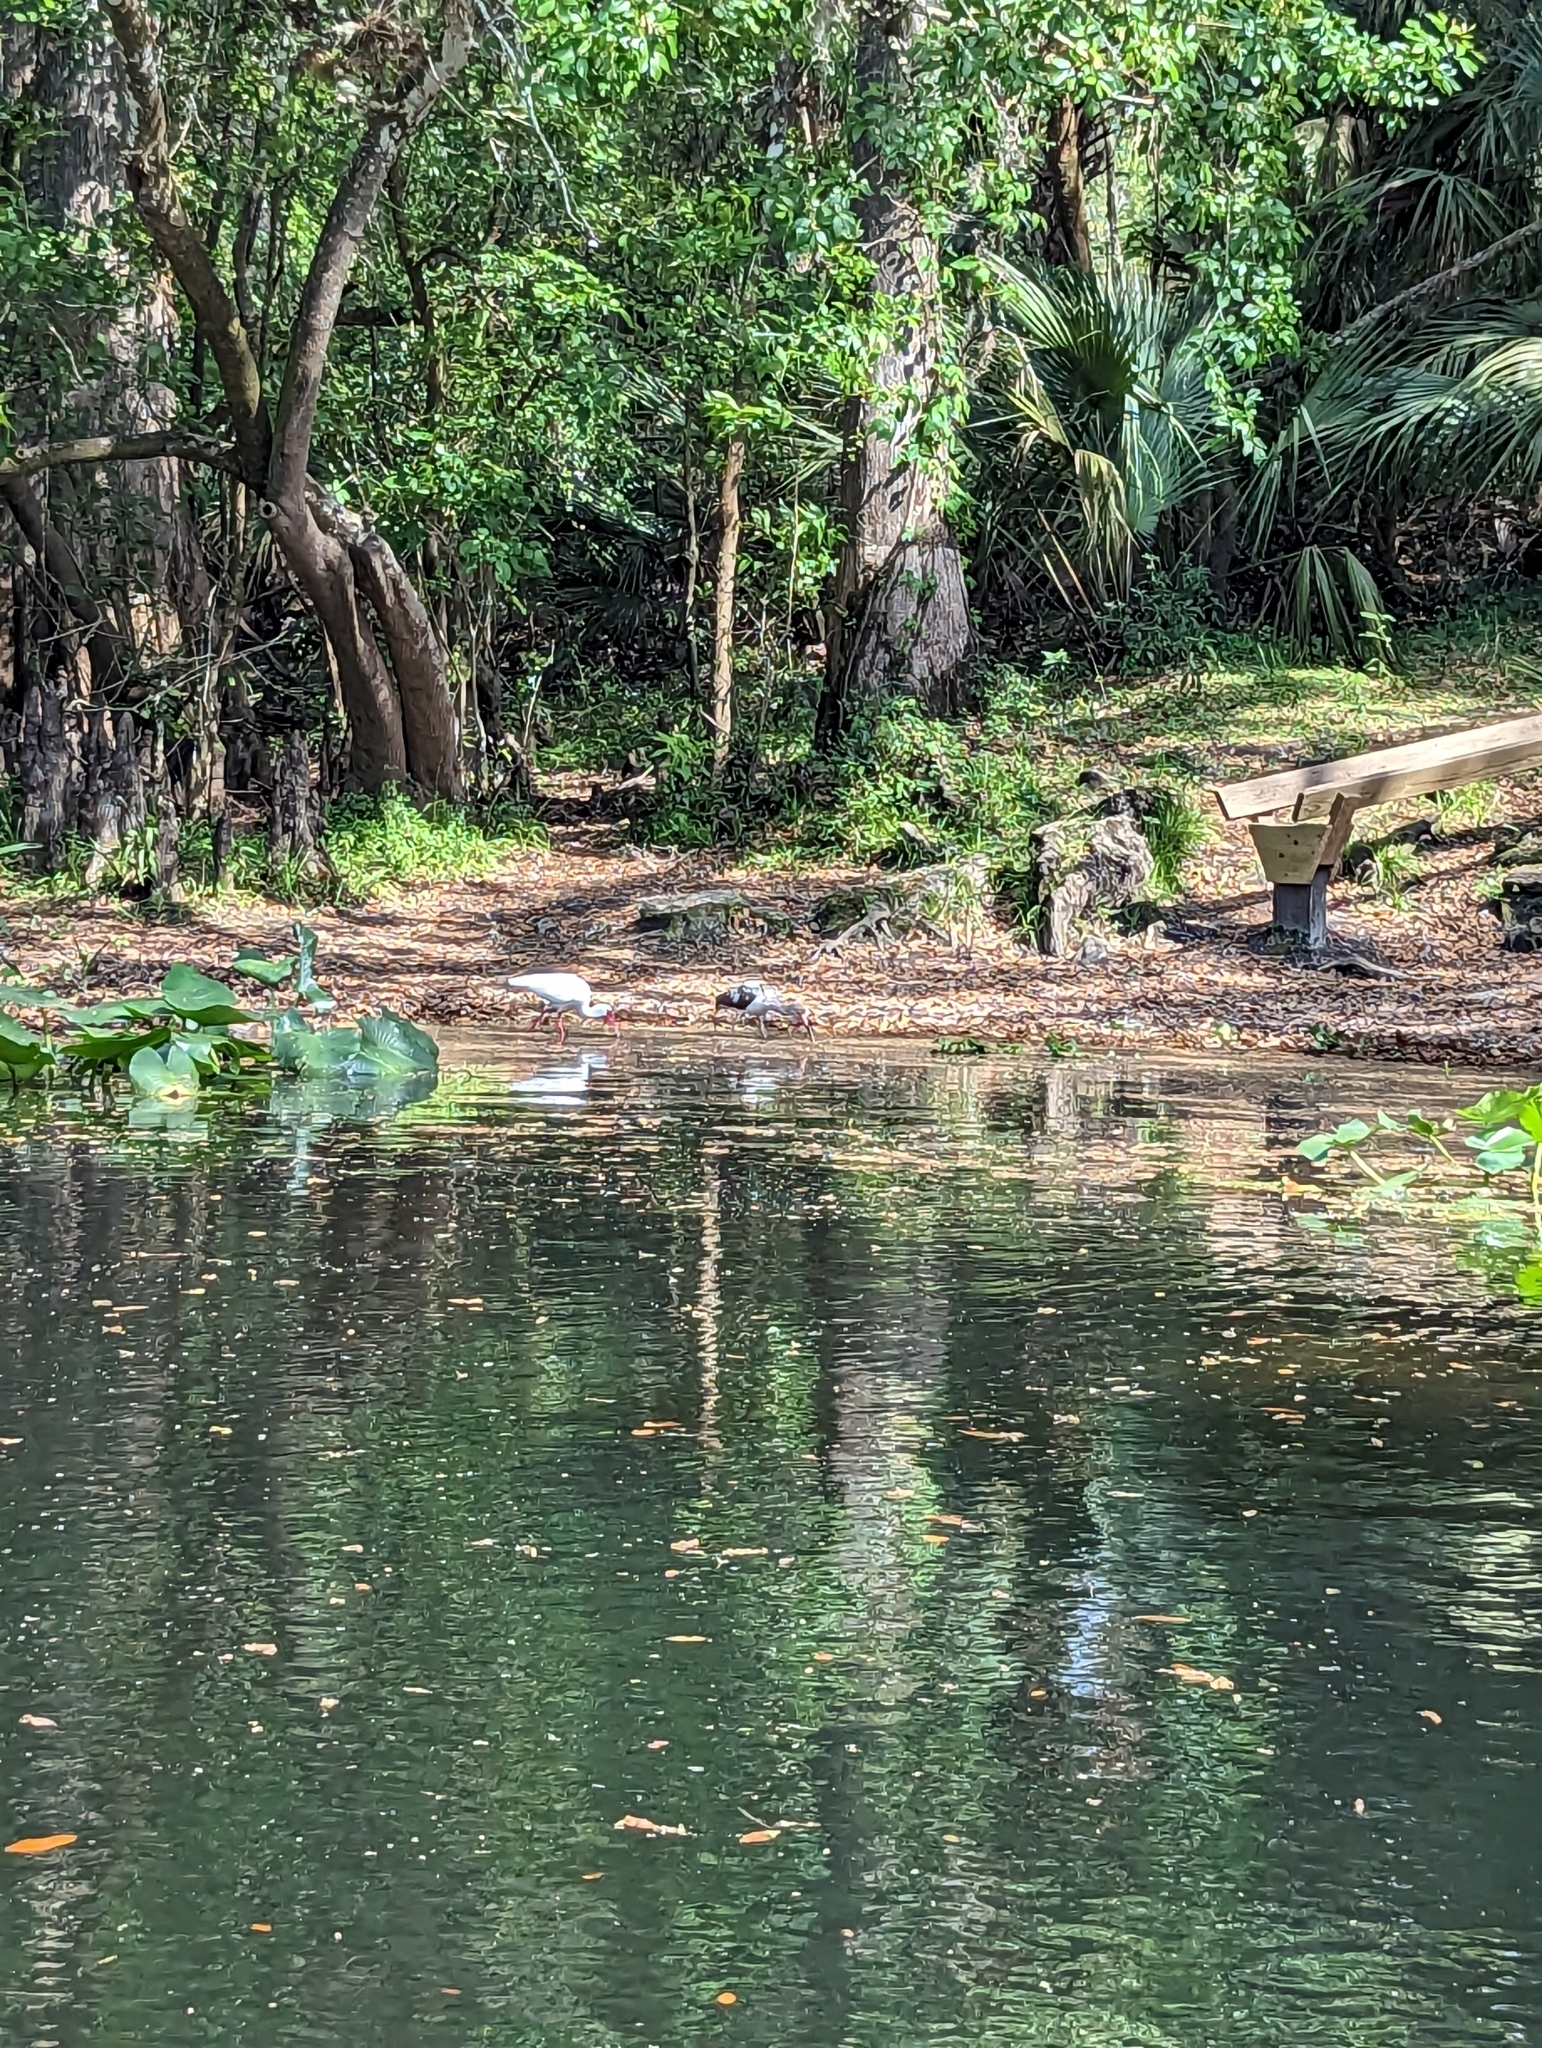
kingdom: Animalia
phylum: Chordata
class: Aves
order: Pelecaniformes
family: Threskiornithidae
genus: Eudocimus
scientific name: Eudocimus albus
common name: White ibis
